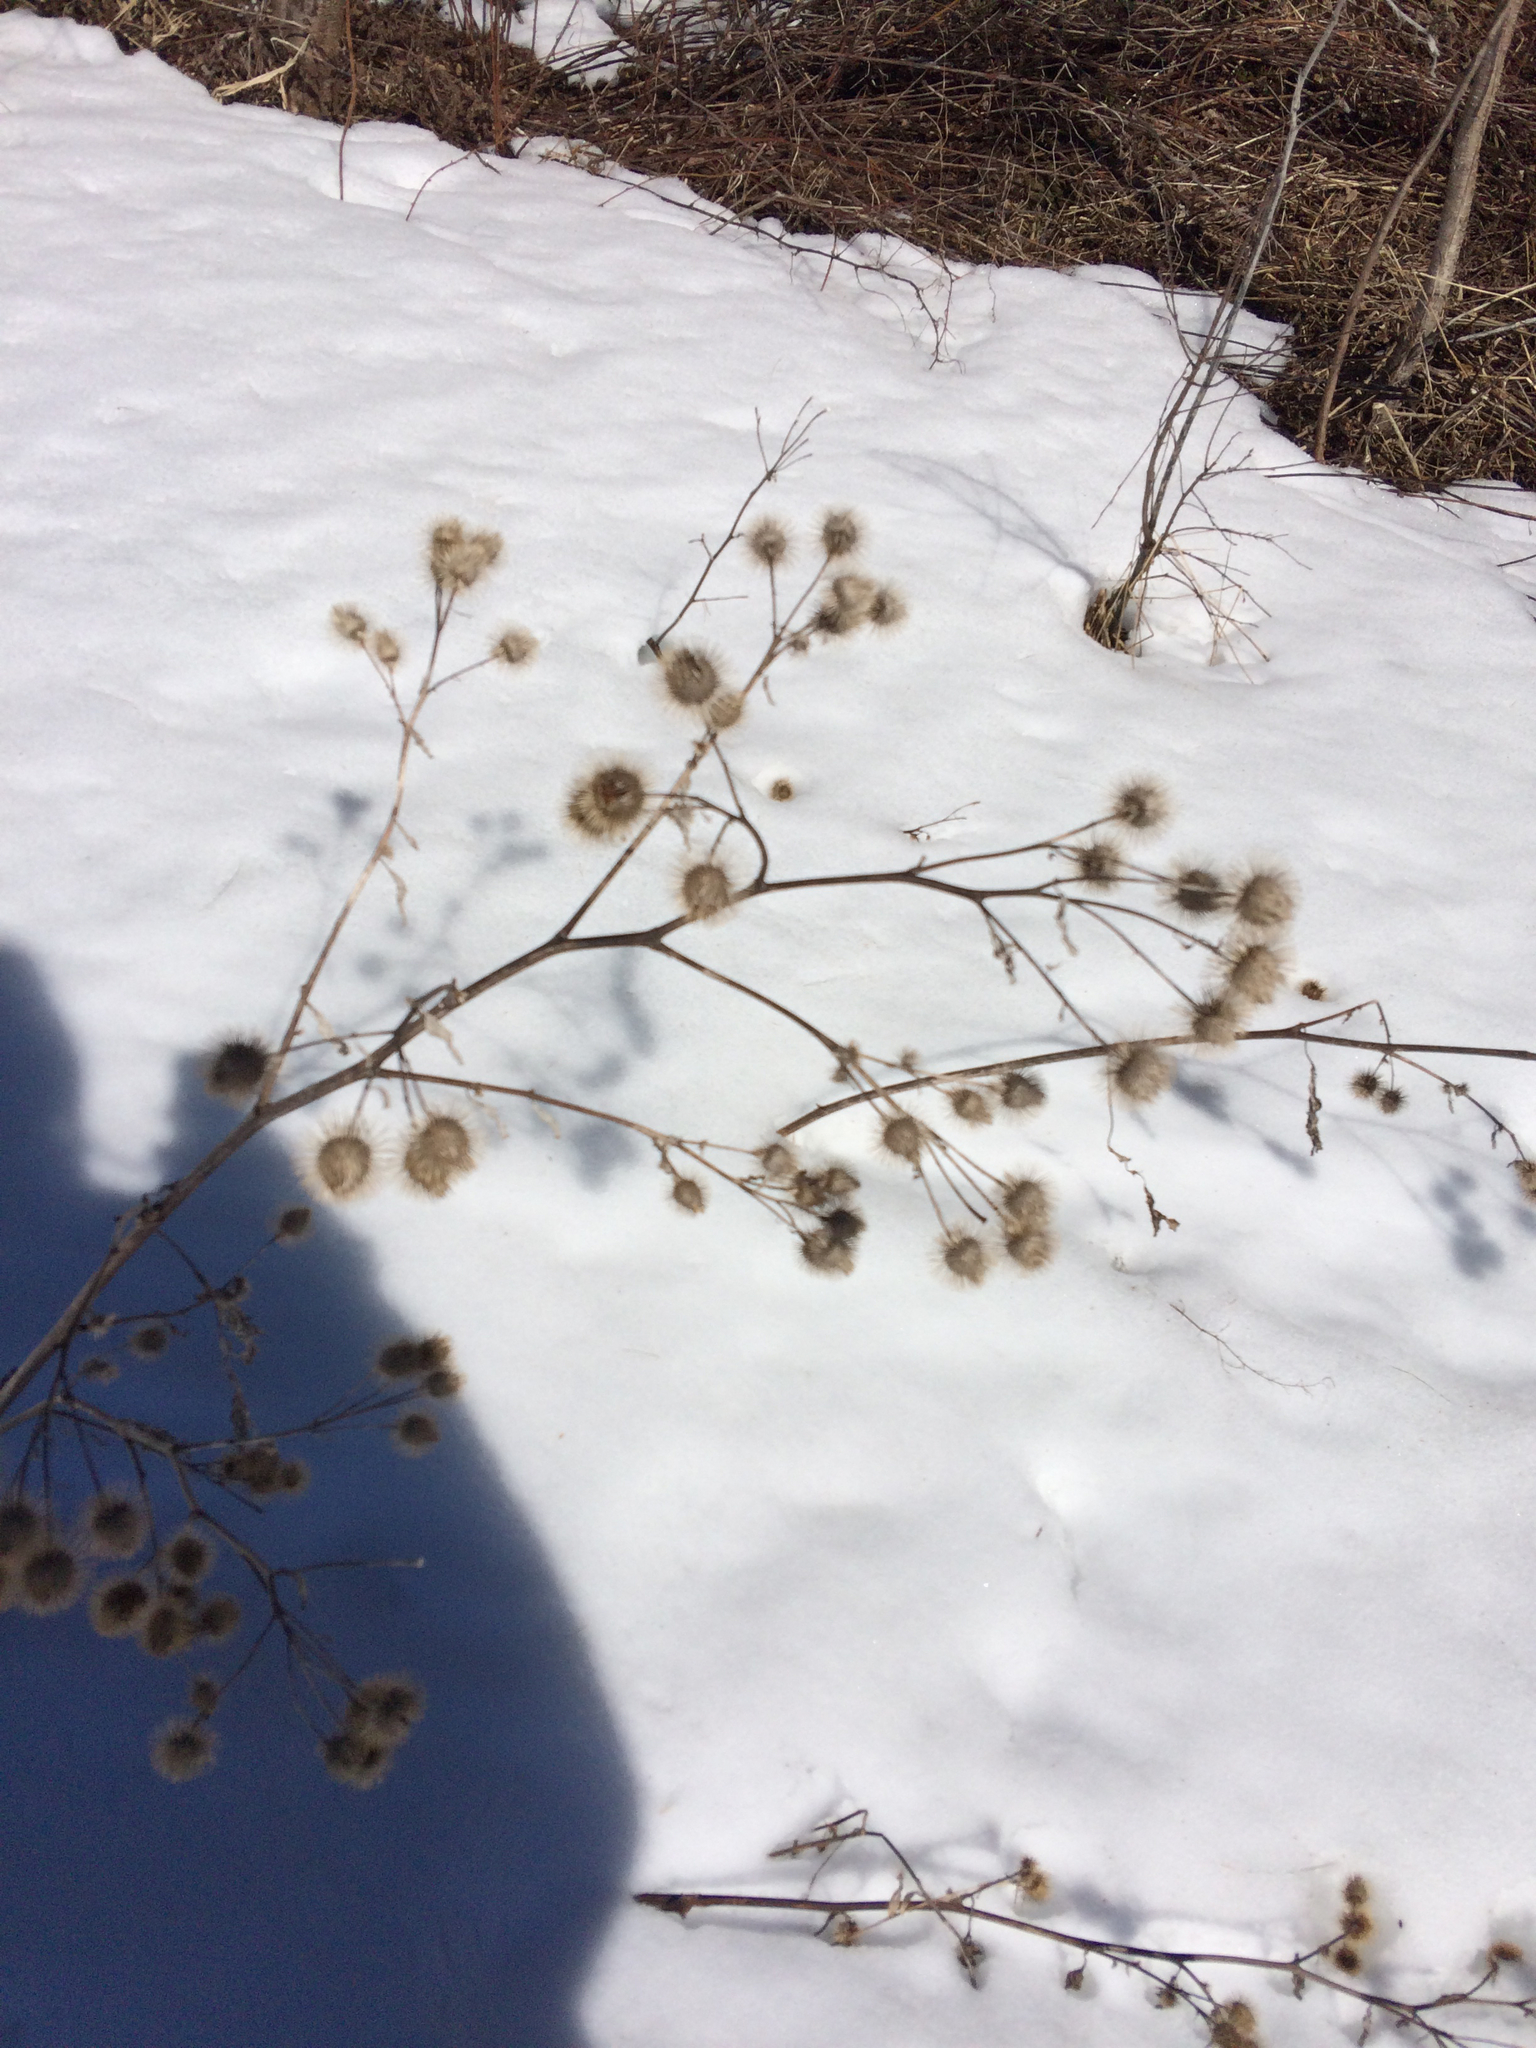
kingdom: Plantae
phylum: Tracheophyta
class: Magnoliopsida
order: Asterales
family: Asteraceae
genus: Arctium
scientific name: Arctium lappa
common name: Greater burdock
